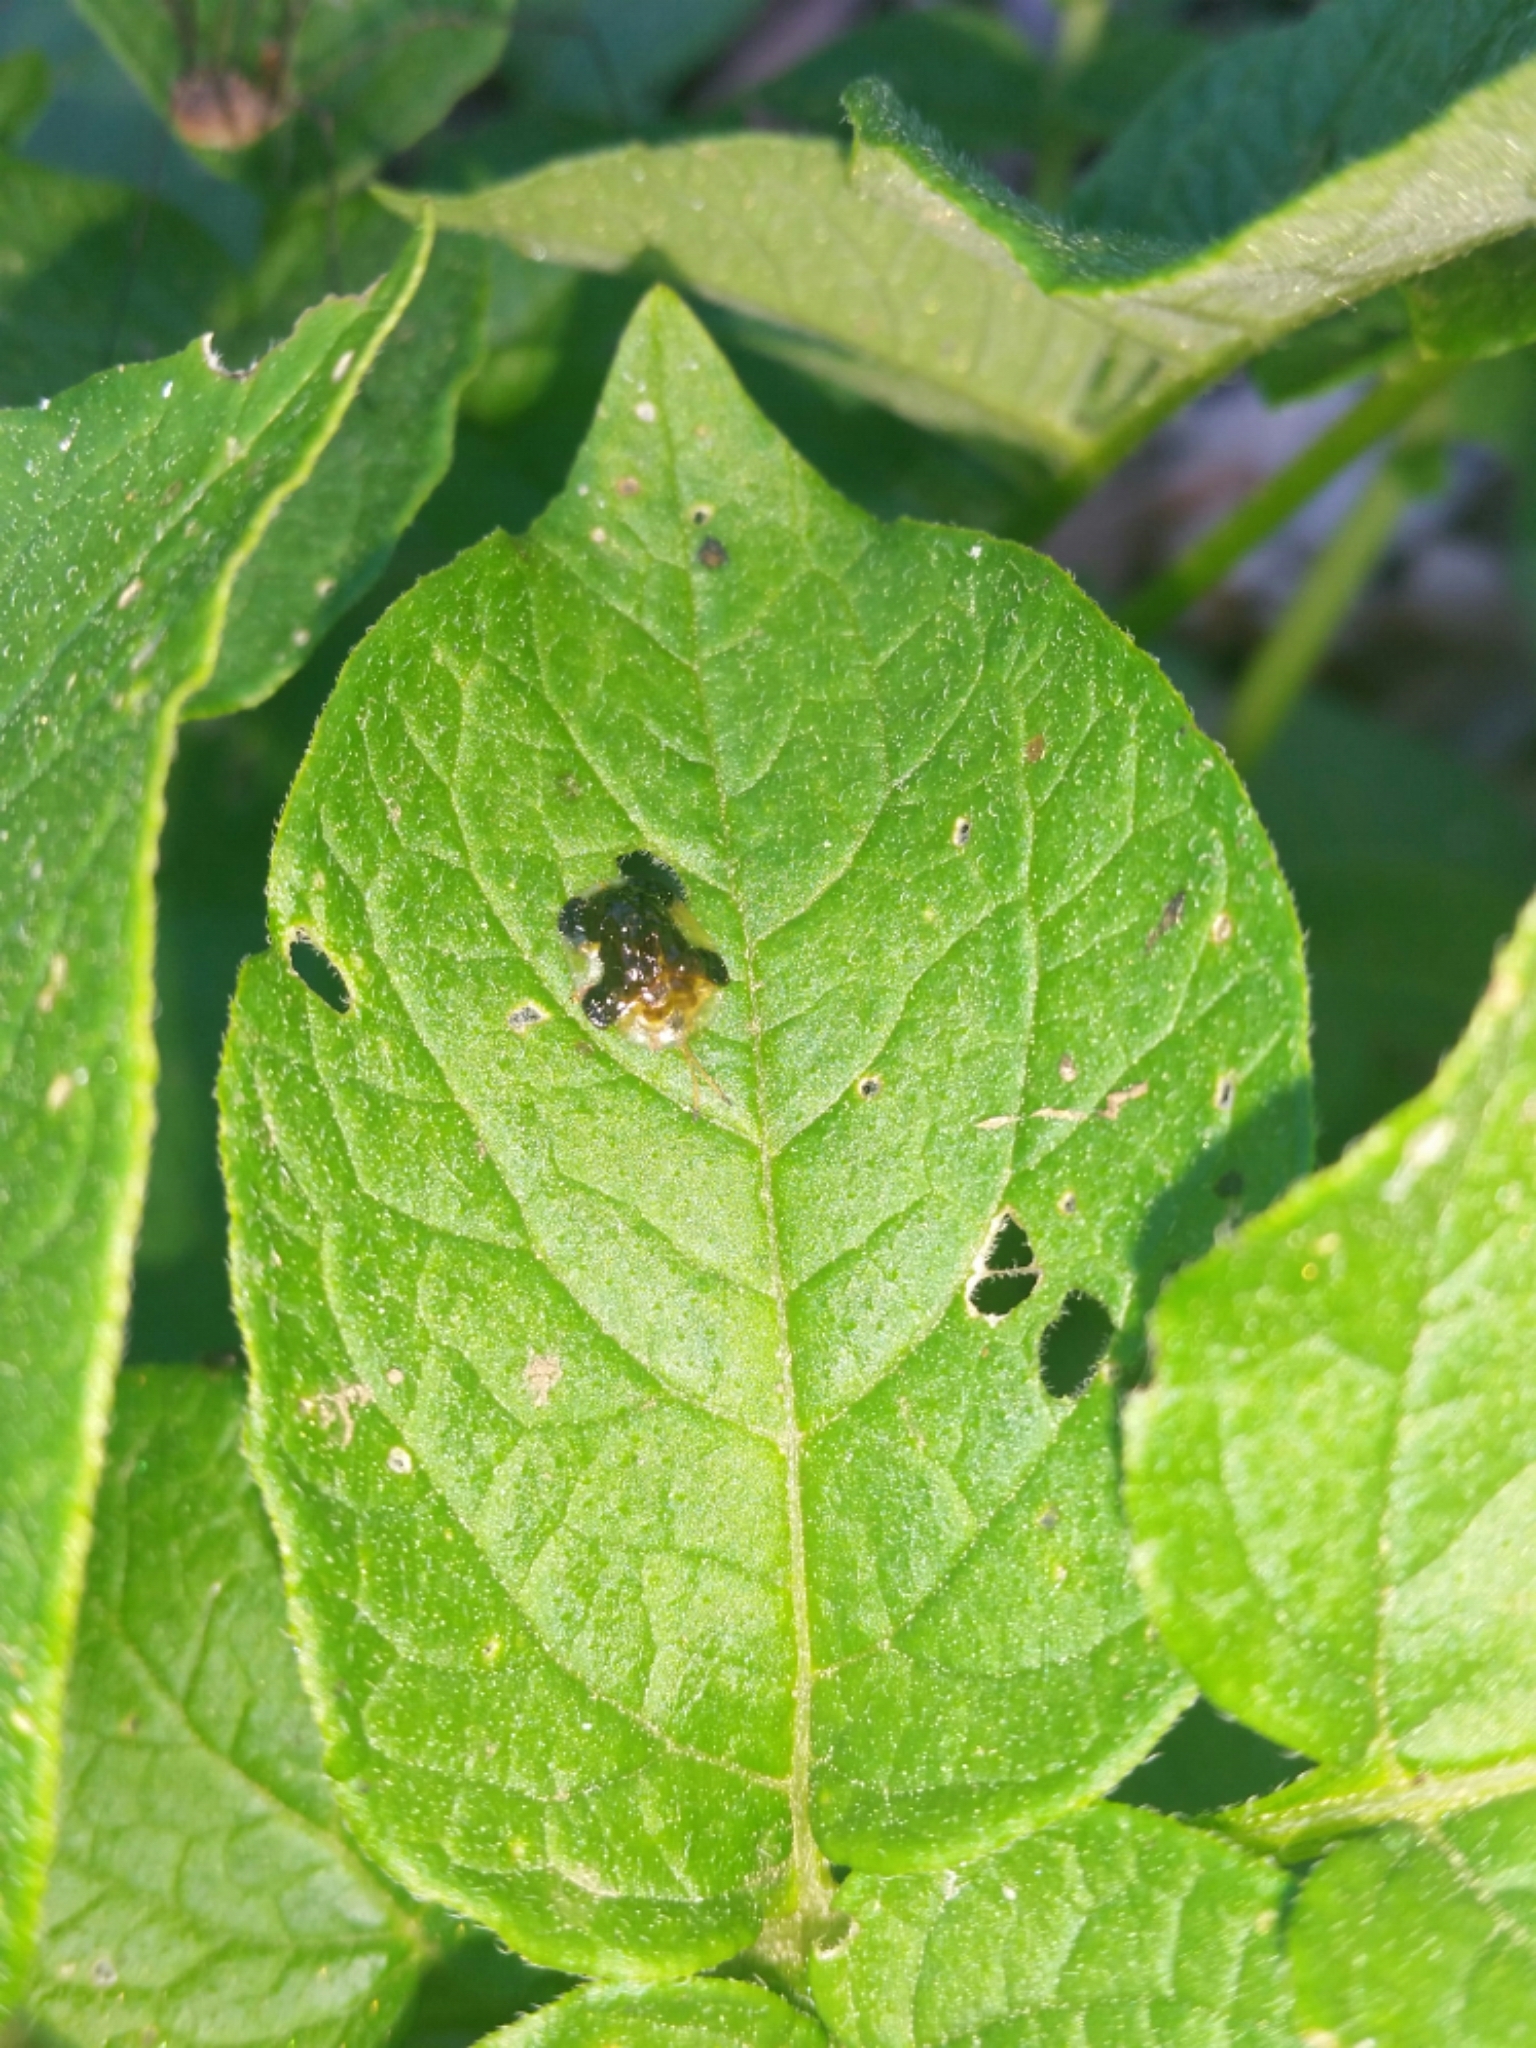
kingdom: Animalia
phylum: Arthropoda
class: Insecta
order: Coleoptera
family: Chrysomelidae
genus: Helocassis
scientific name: Helocassis clavata
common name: Clavate tortoise beetle
